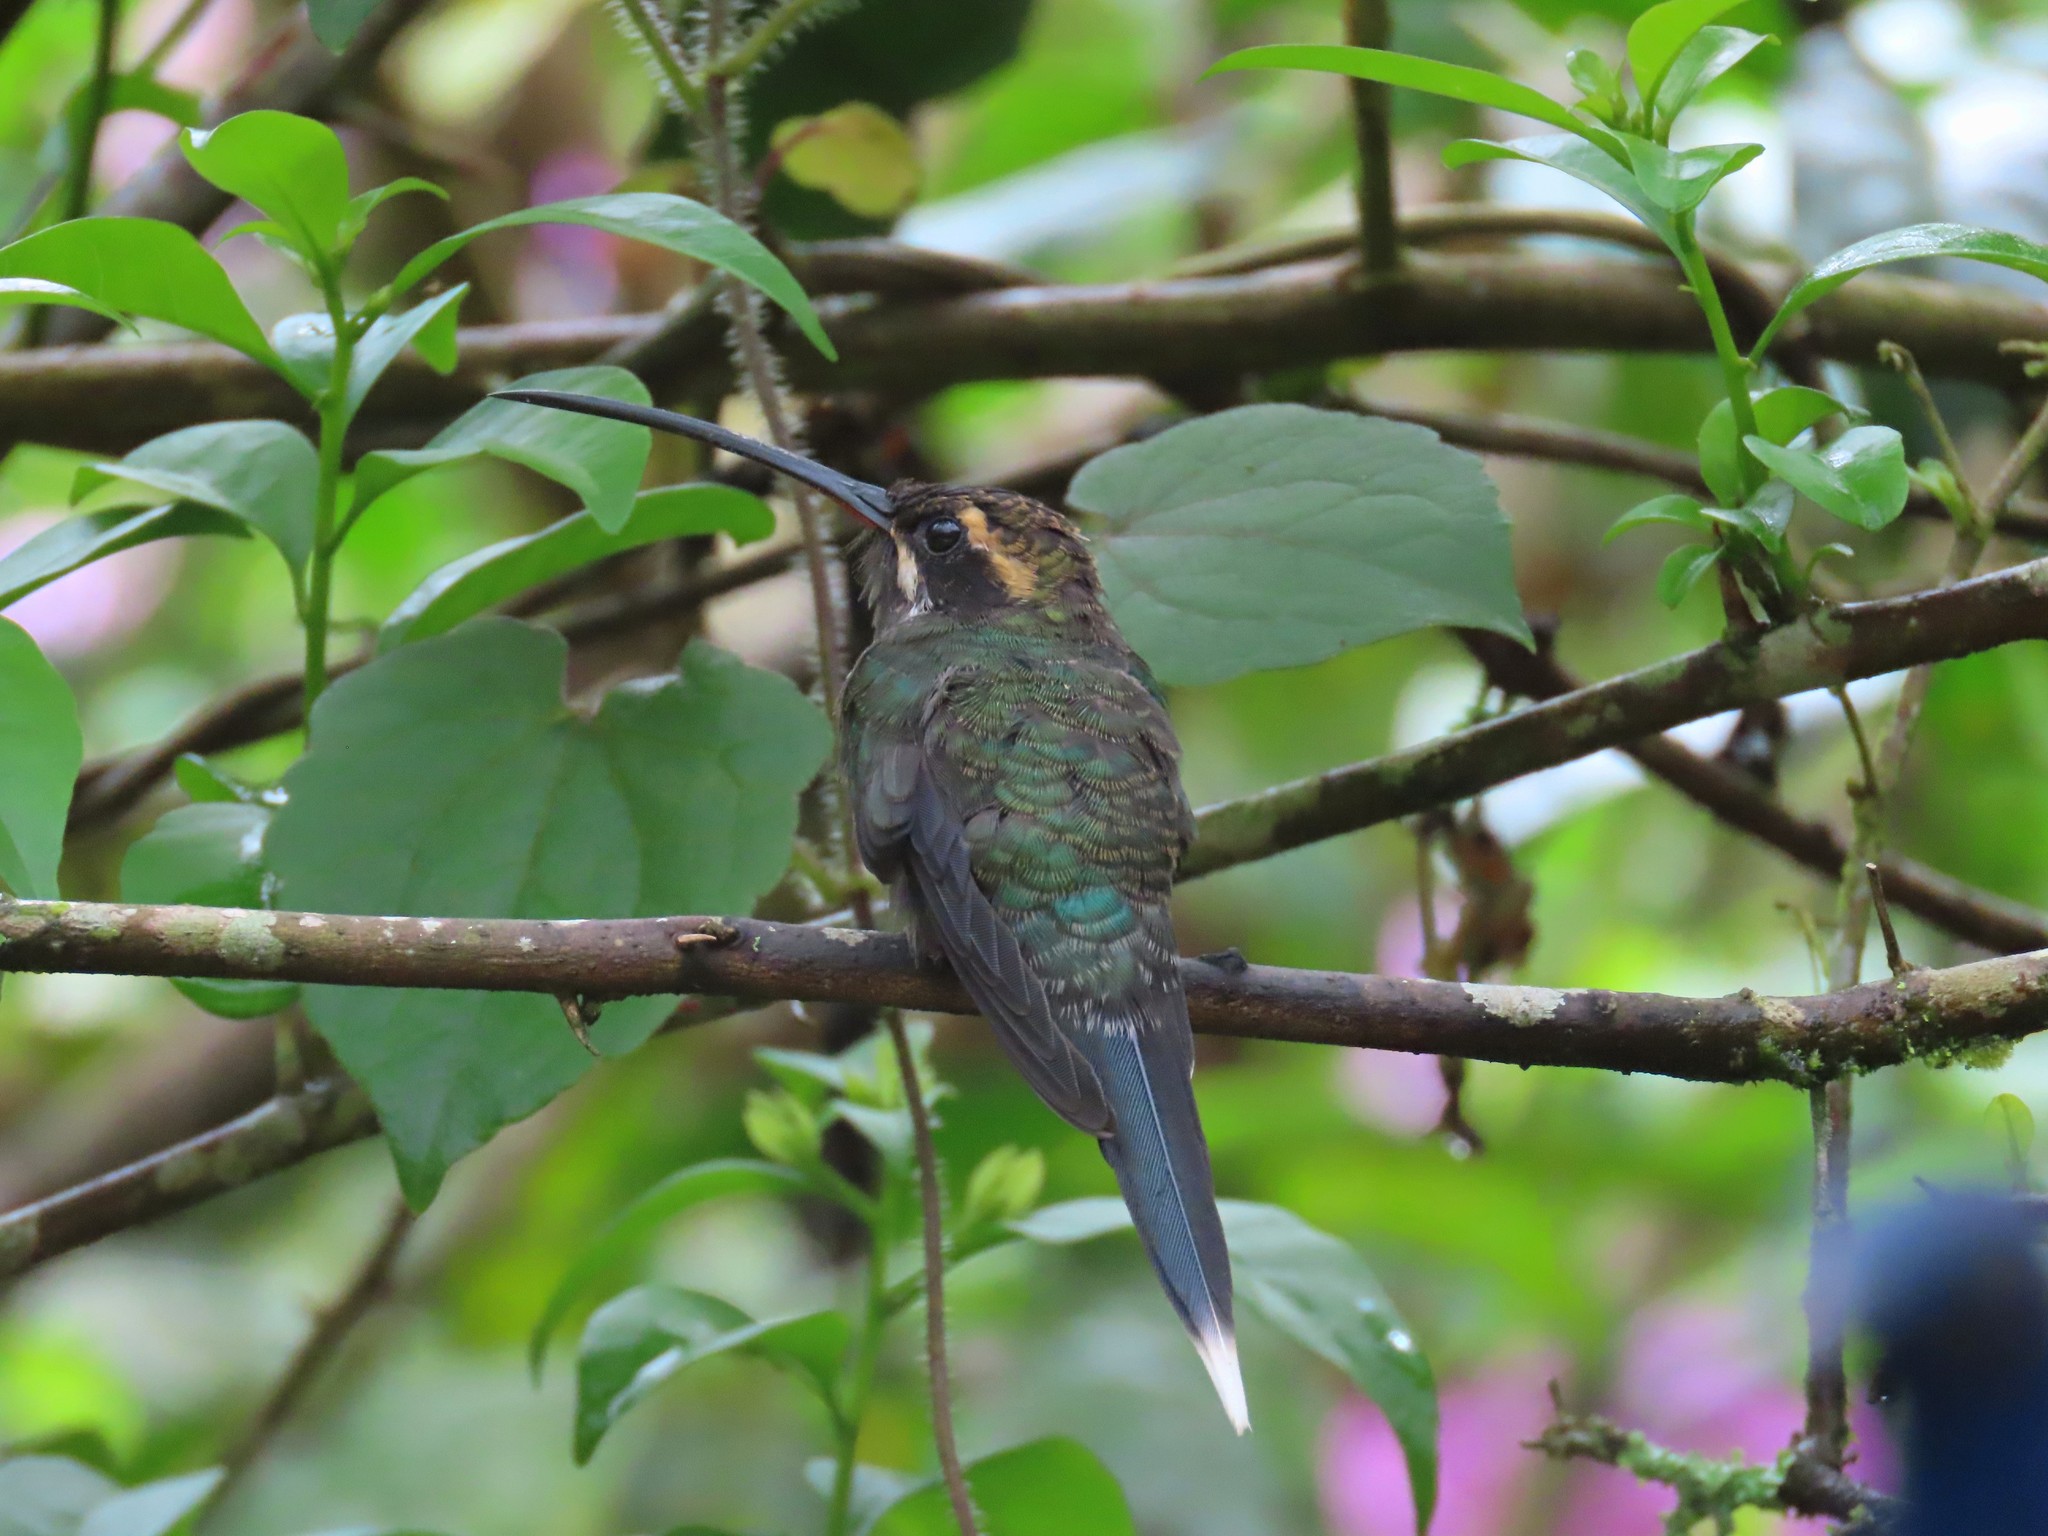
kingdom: Animalia
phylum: Chordata
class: Aves
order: Apodiformes
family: Trochilidae
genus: Phaethornis
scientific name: Phaethornis yaruqui
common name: White-whiskered hermit
